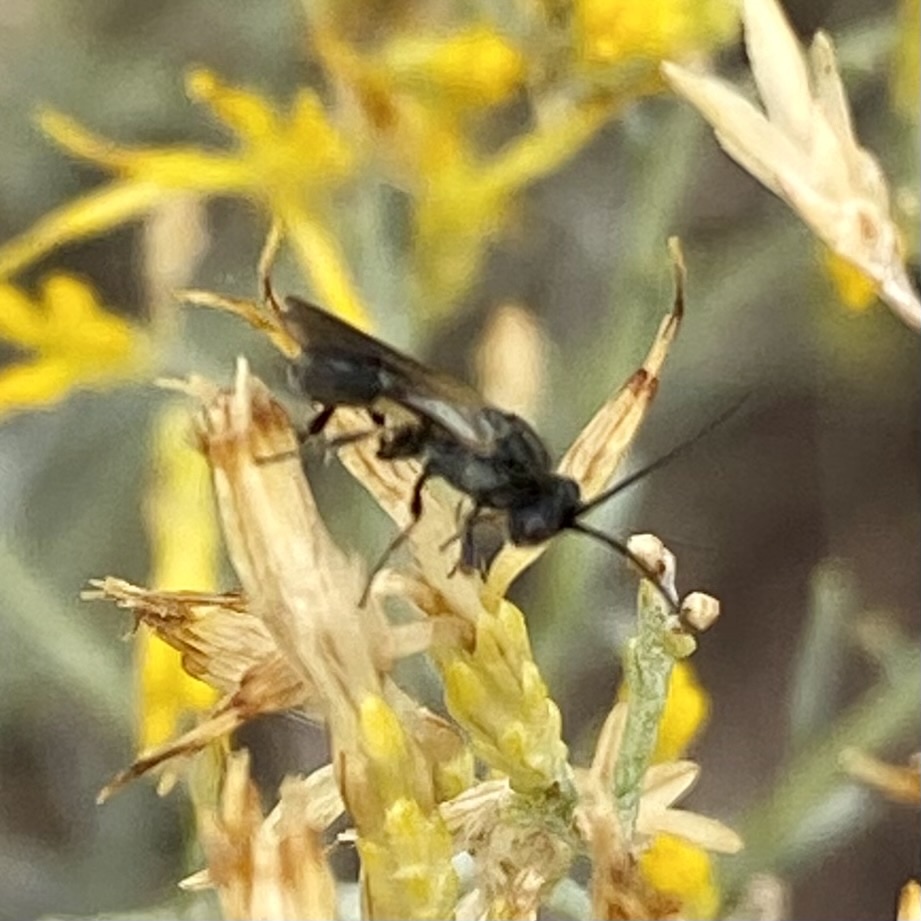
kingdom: Animalia
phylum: Arthropoda
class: Insecta
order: Hymenoptera
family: Braconidae
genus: Chelonus
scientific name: Chelonus
